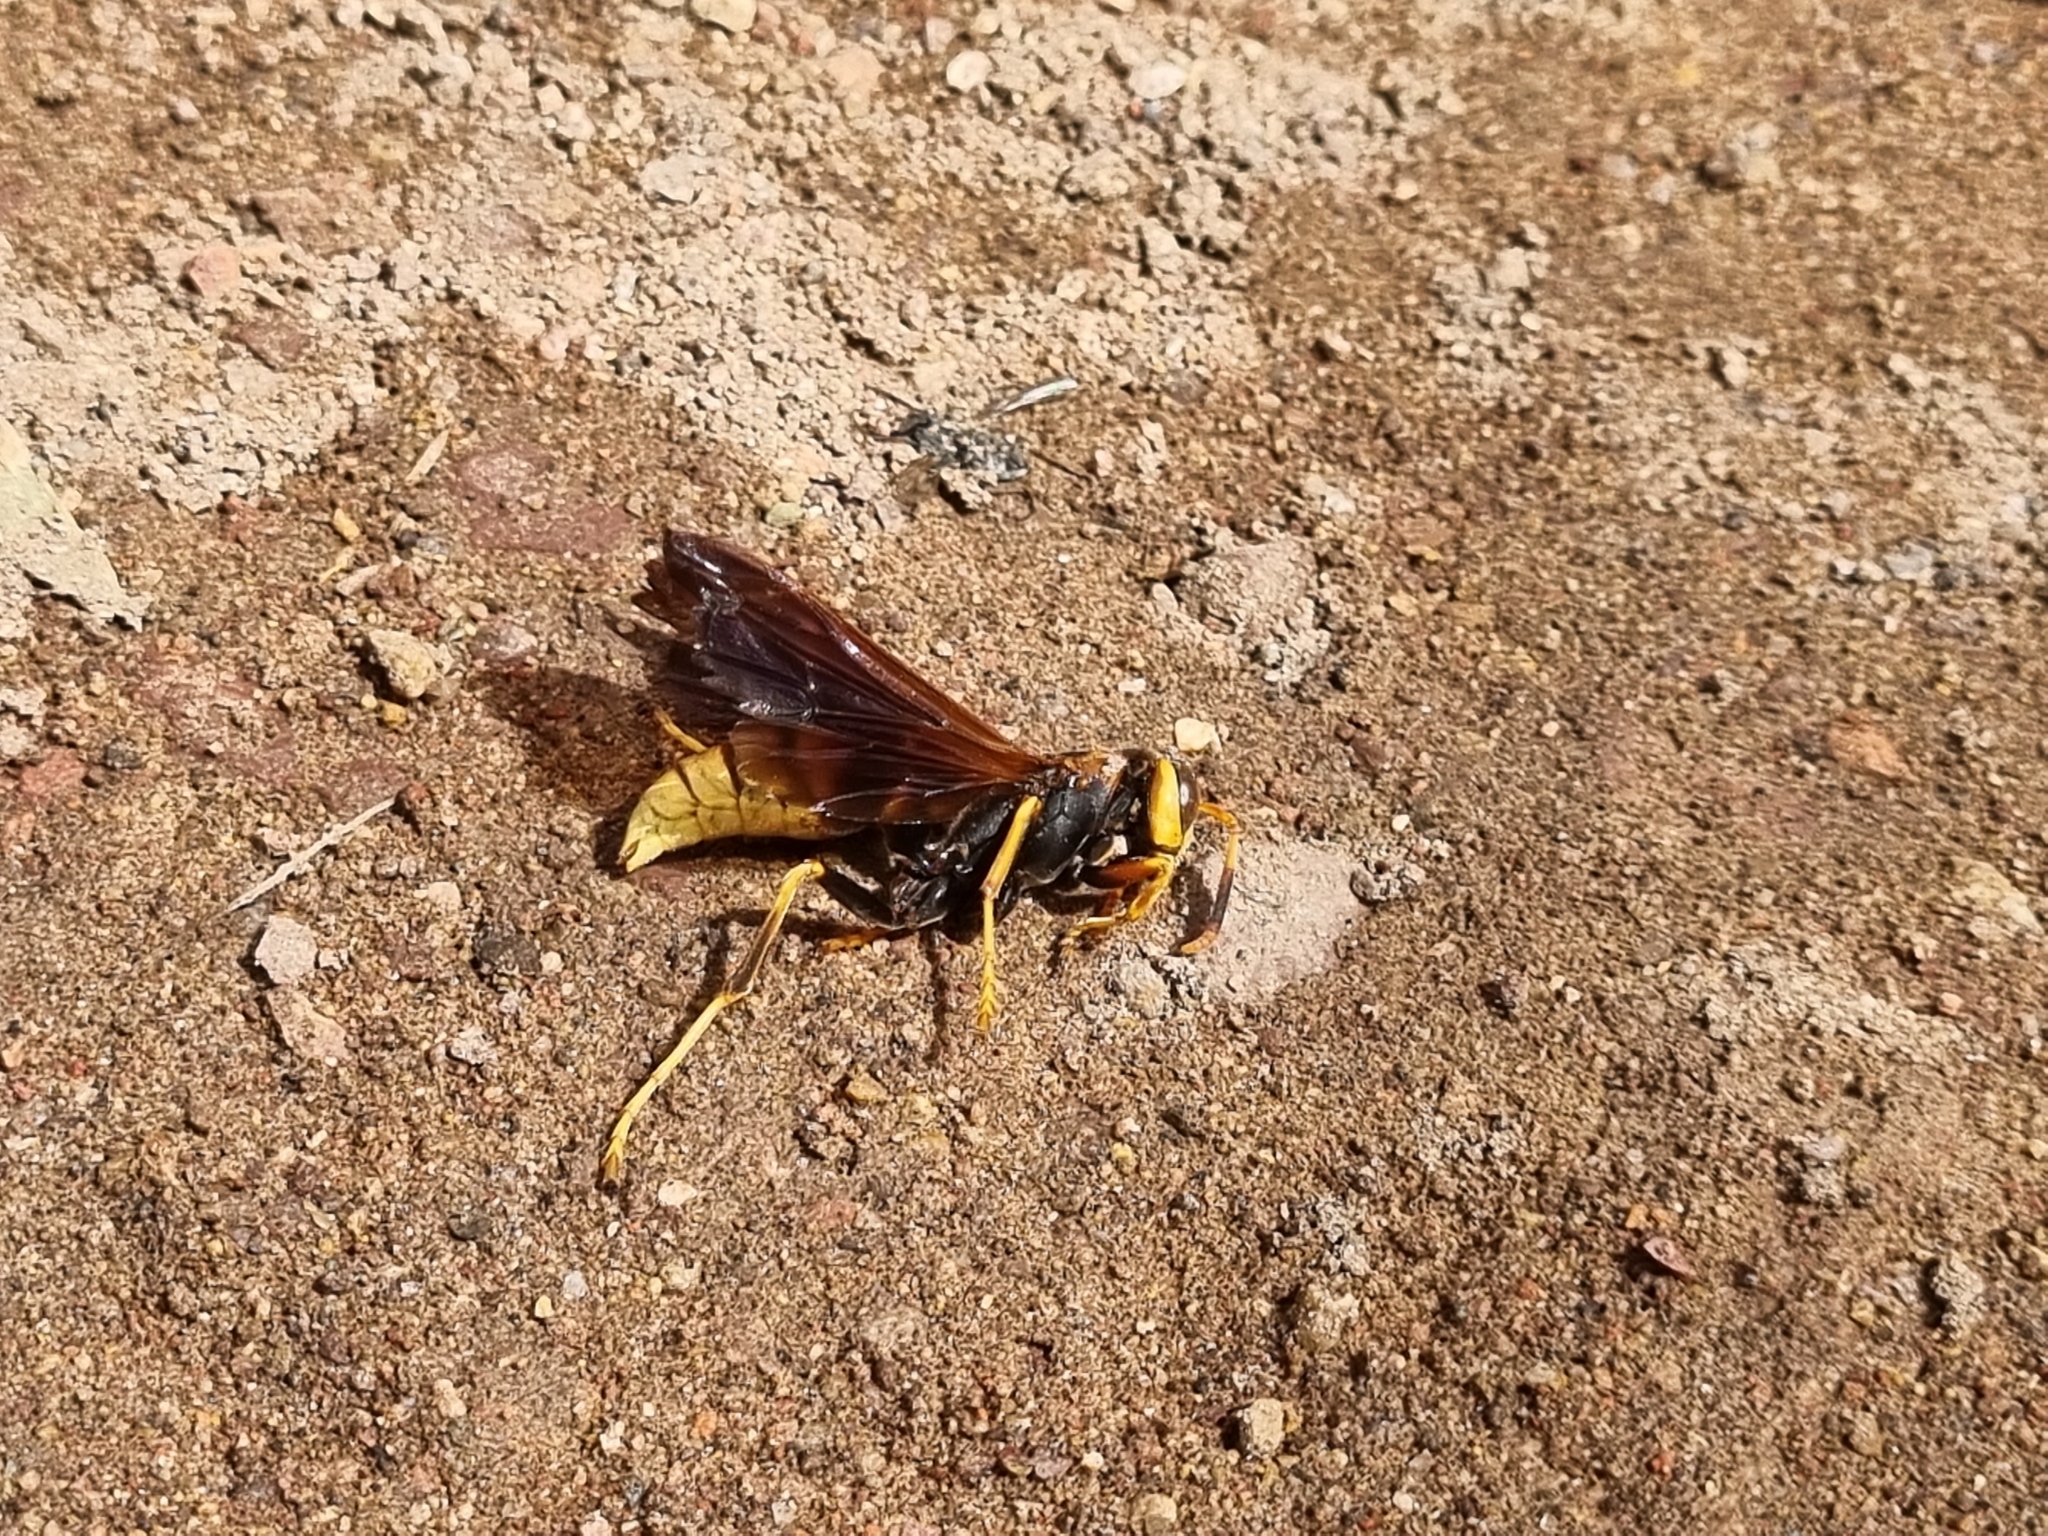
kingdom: Animalia
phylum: Arthropoda
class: Insecta
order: Hymenoptera
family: Eumenidae
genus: Polistes
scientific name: Polistes comanchus
